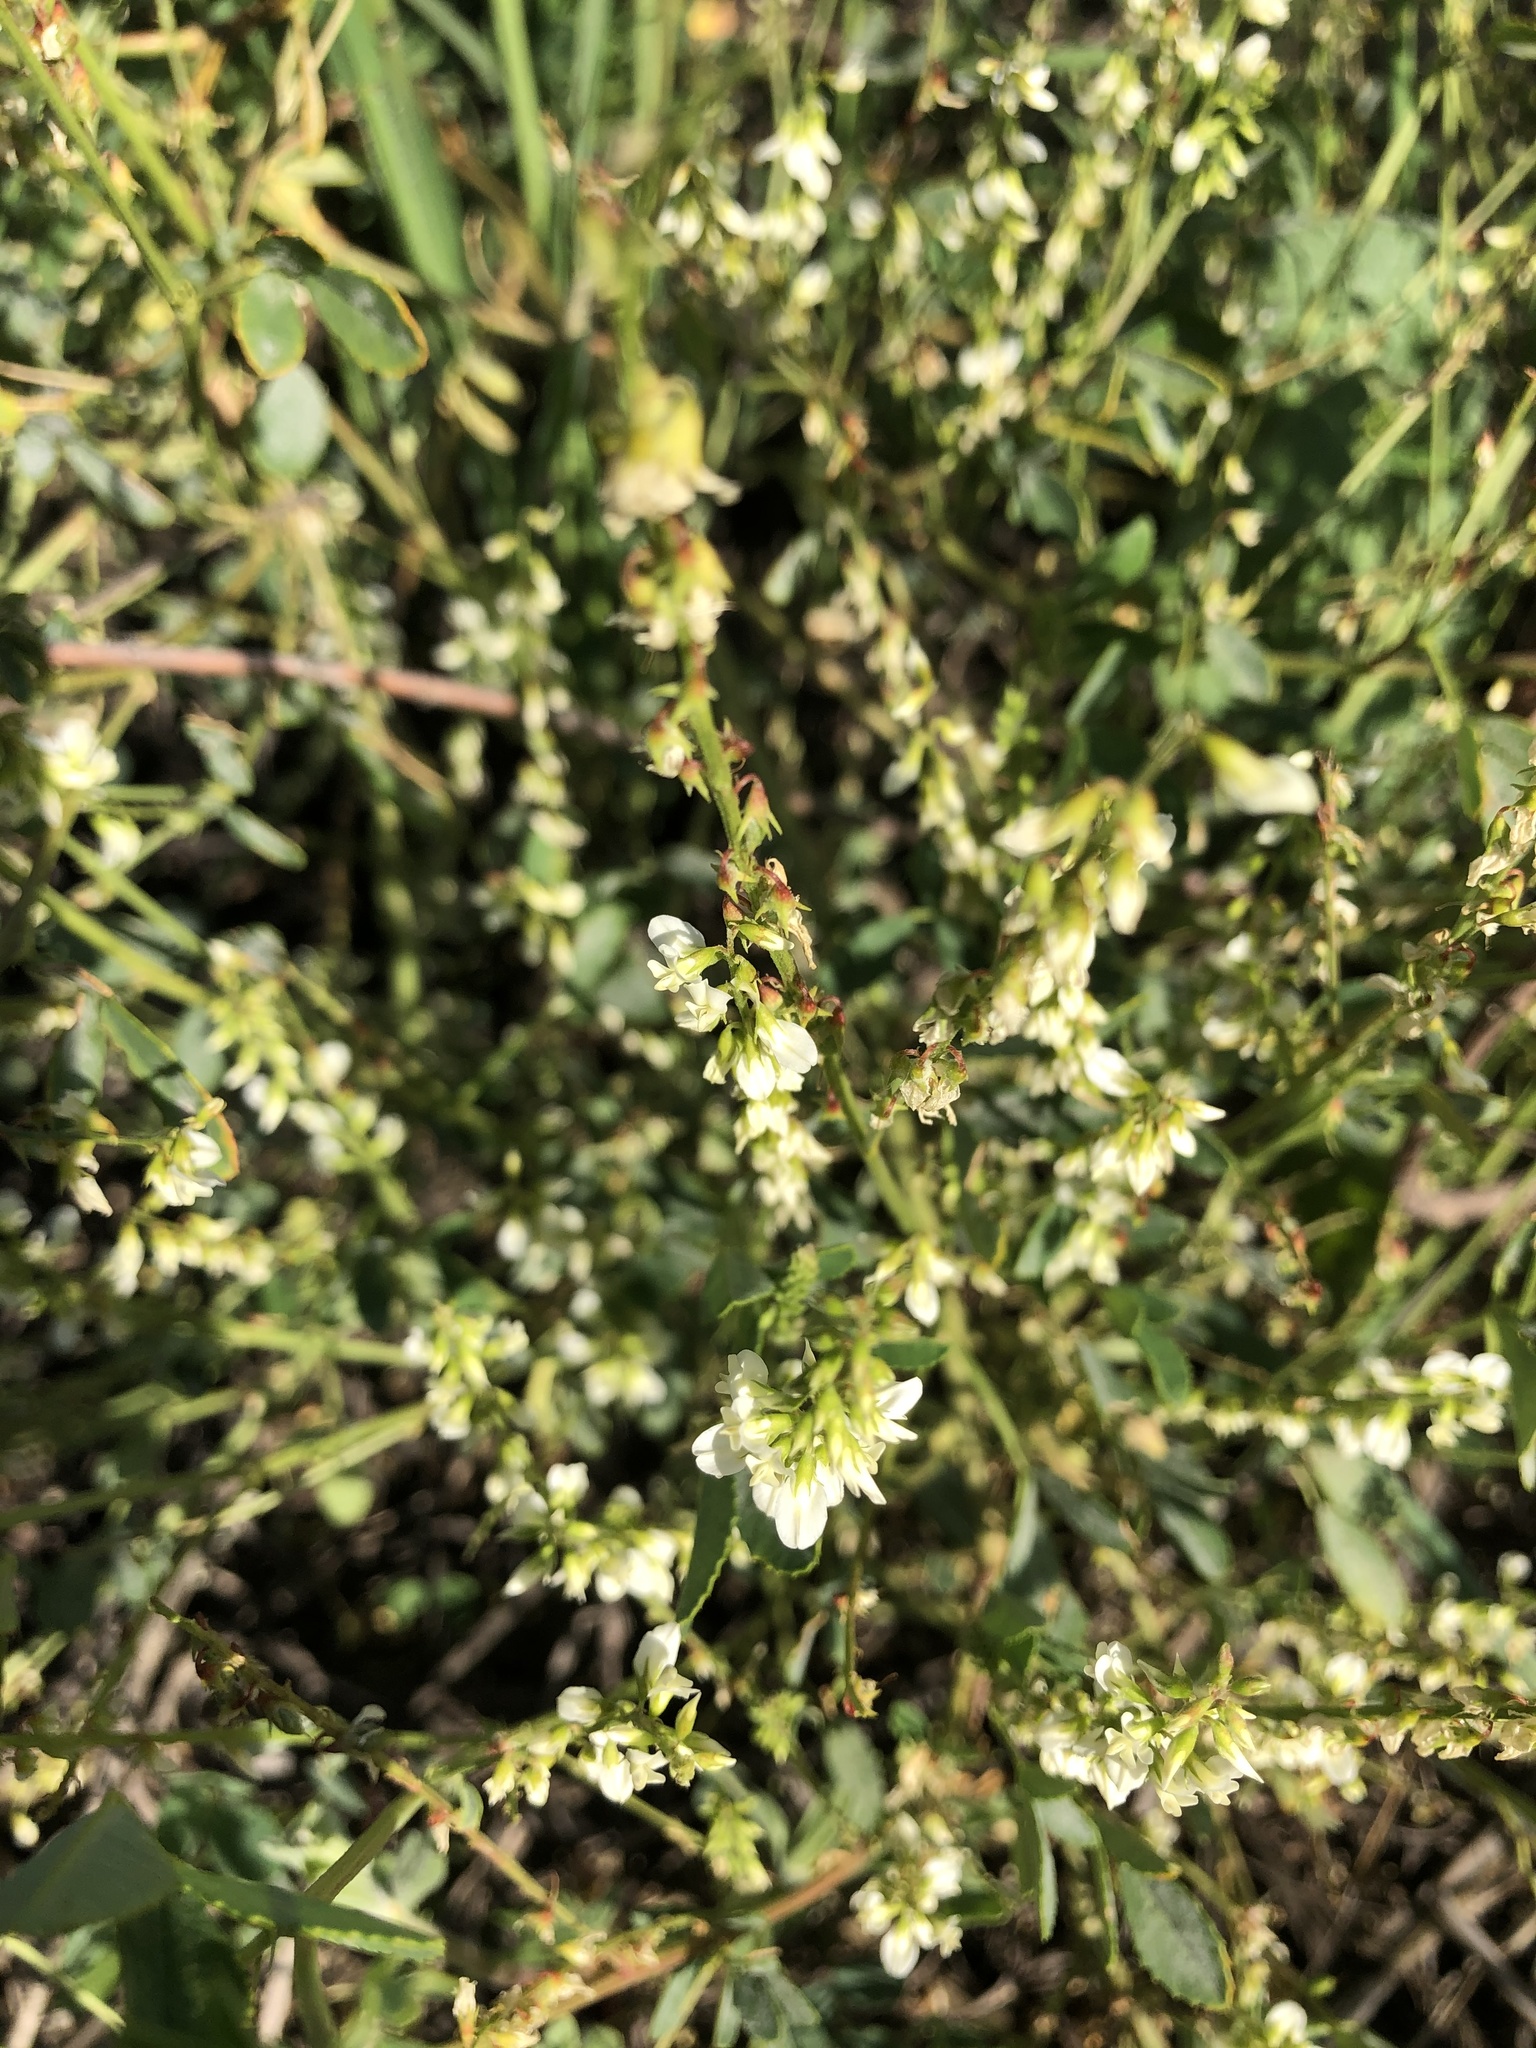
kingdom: Plantae
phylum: Tracheophyta
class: Magnoliopsida
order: Fabales
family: Fabaceae
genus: Melilotus
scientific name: Melilotus albus
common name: White melilot
